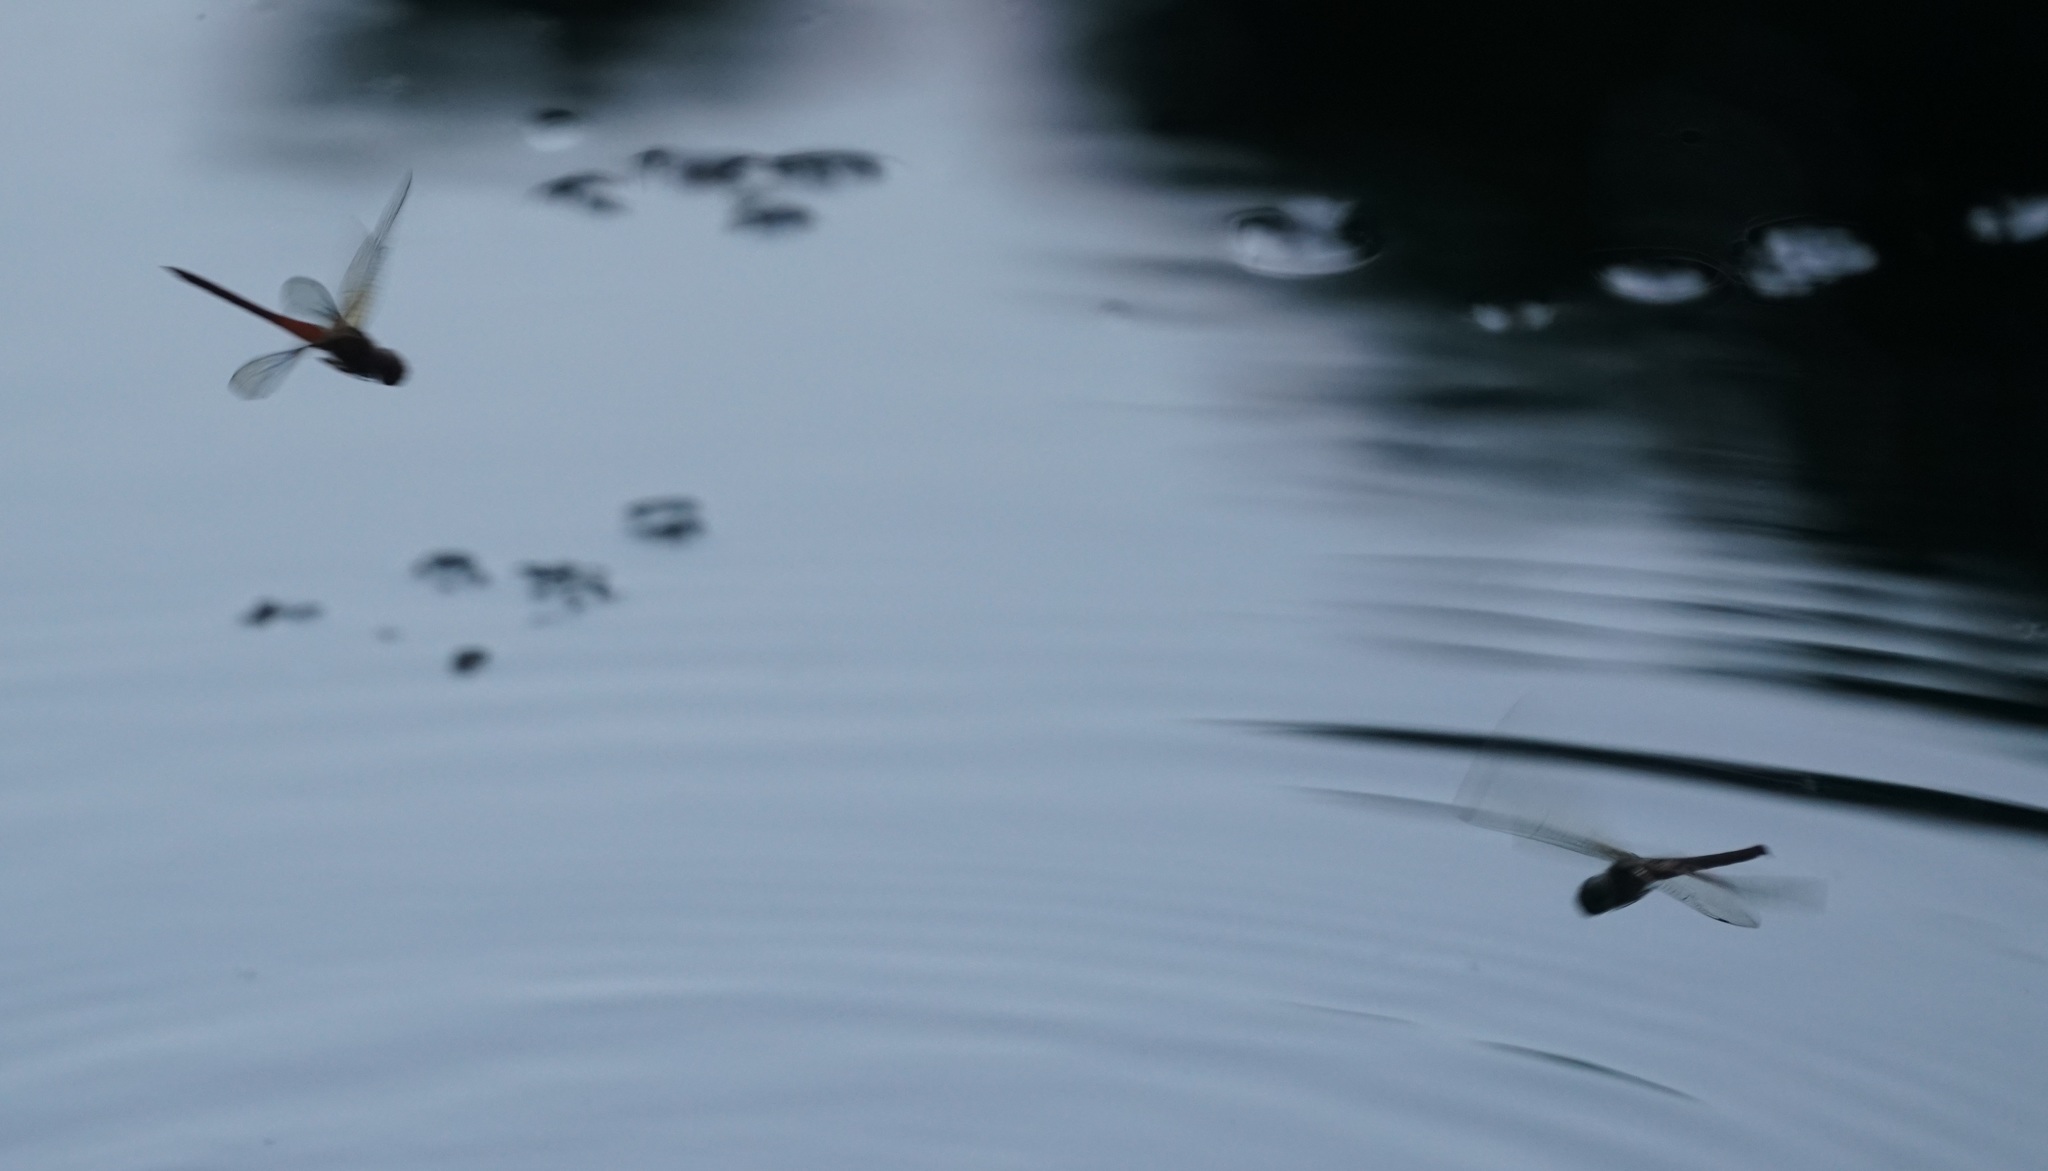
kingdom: Animalia
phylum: Arthropoda
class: Insecta
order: Odonata
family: Libellulidae
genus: Tholymis
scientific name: Tholymis tillarga
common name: Coral-tailed cloud wing
